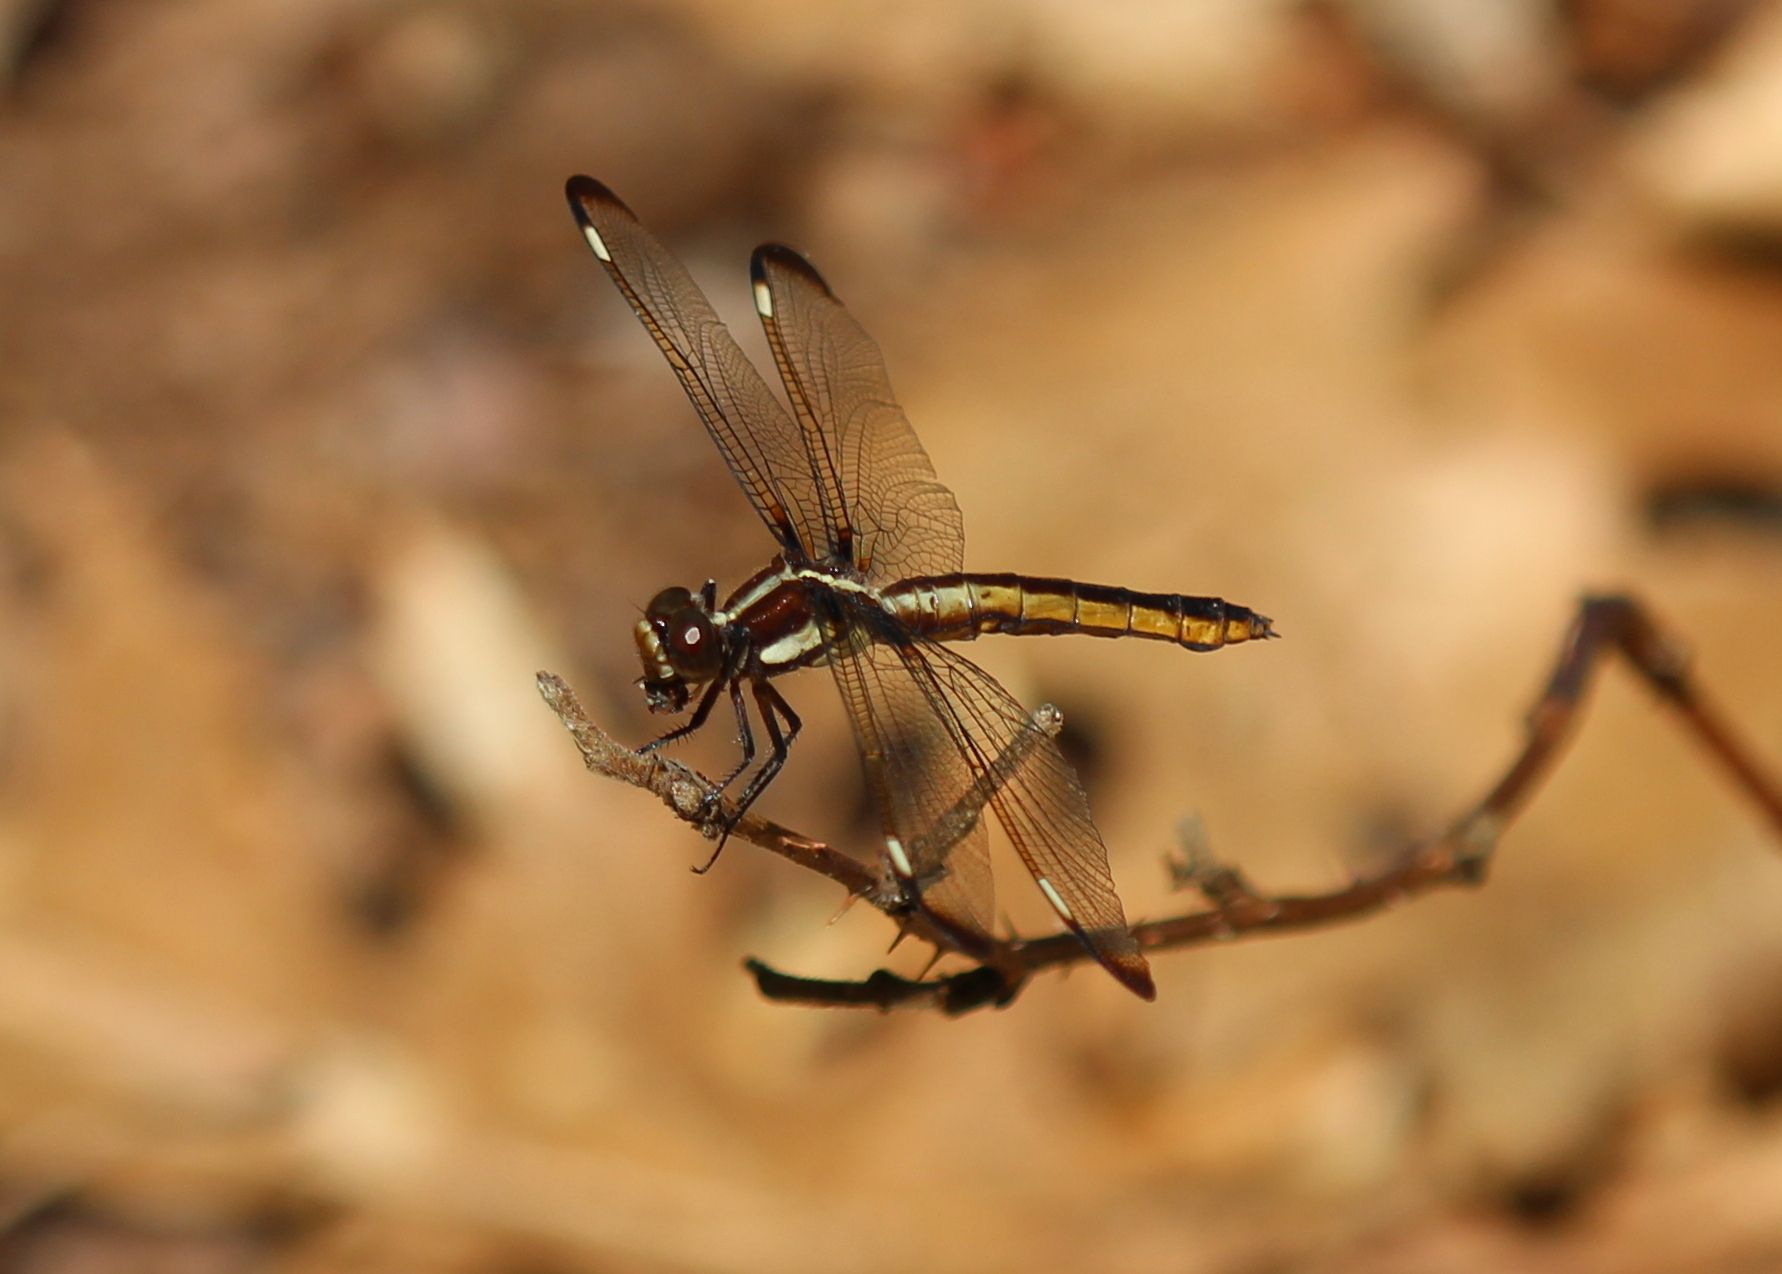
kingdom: Animalia
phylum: Arthropoda
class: Insecta
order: Odonata
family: Libellulidae
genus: Libellula
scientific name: Libellula cyanea
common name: Spangled skimmer
